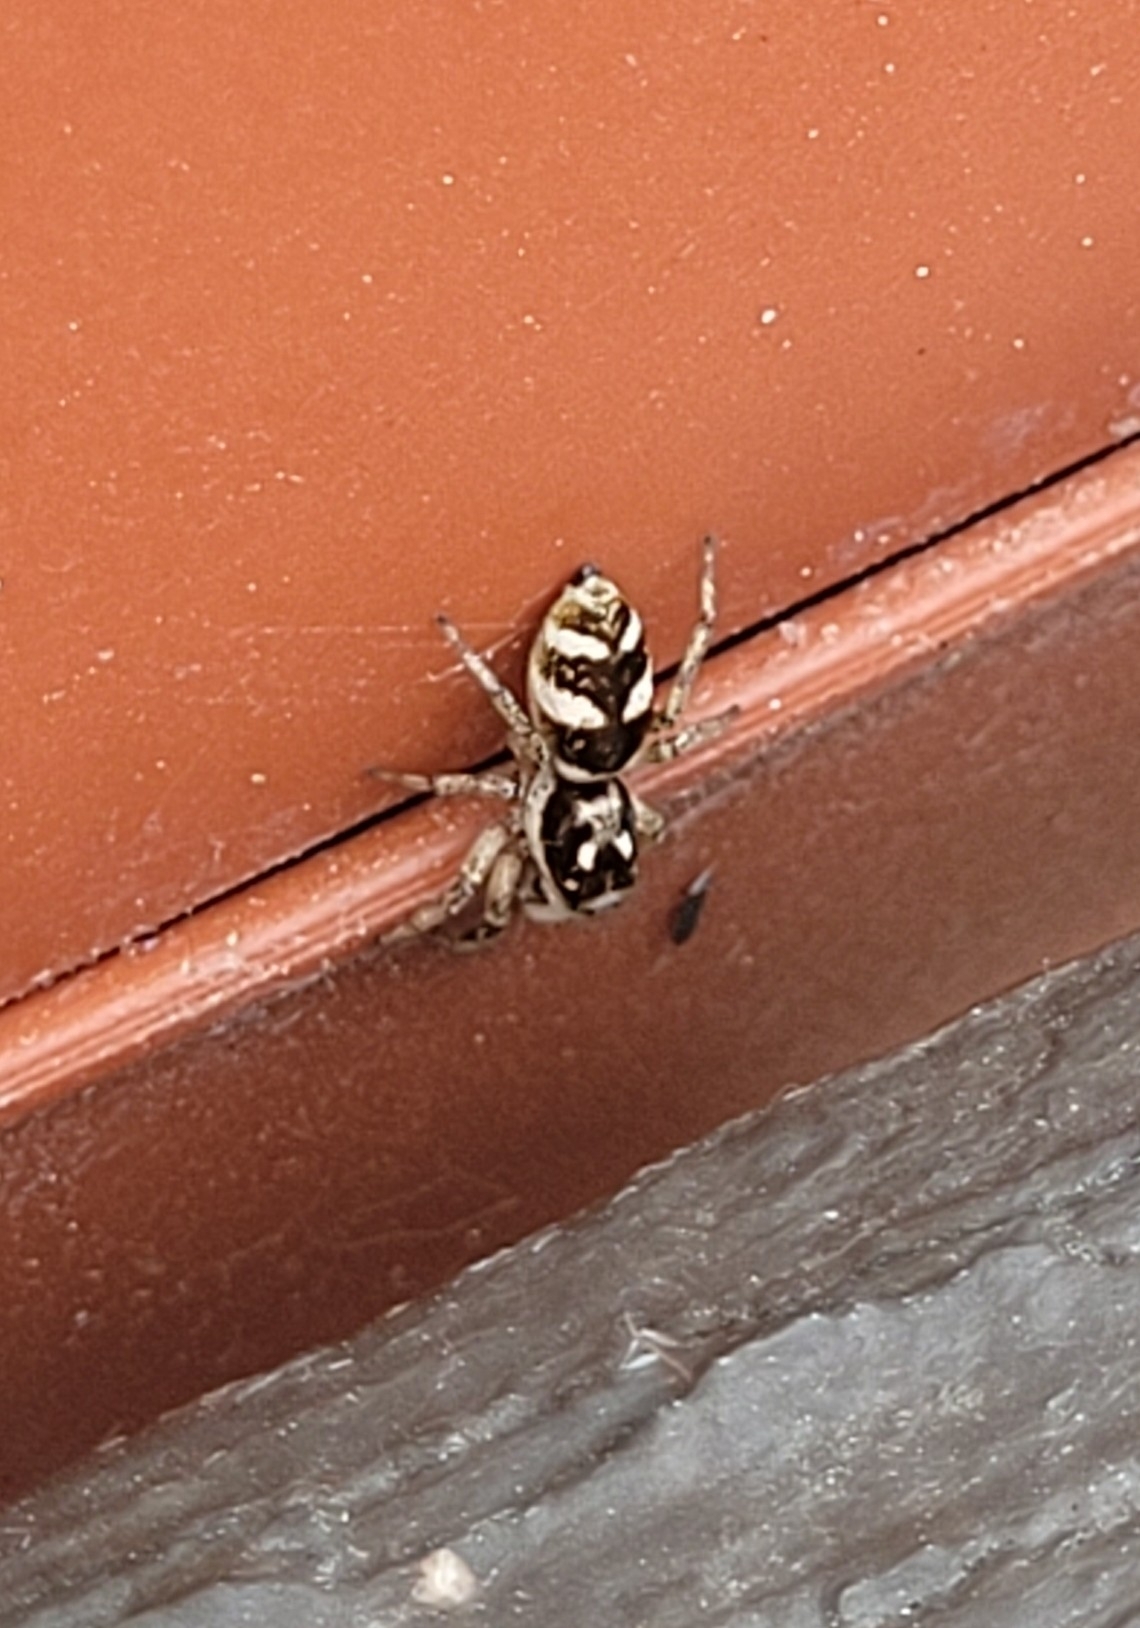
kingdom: Animalia
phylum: Arthropoda
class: Arachnida
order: Araneae
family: Salticidae
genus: Salticus
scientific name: Salticus scenicus
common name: Zebra jumper
